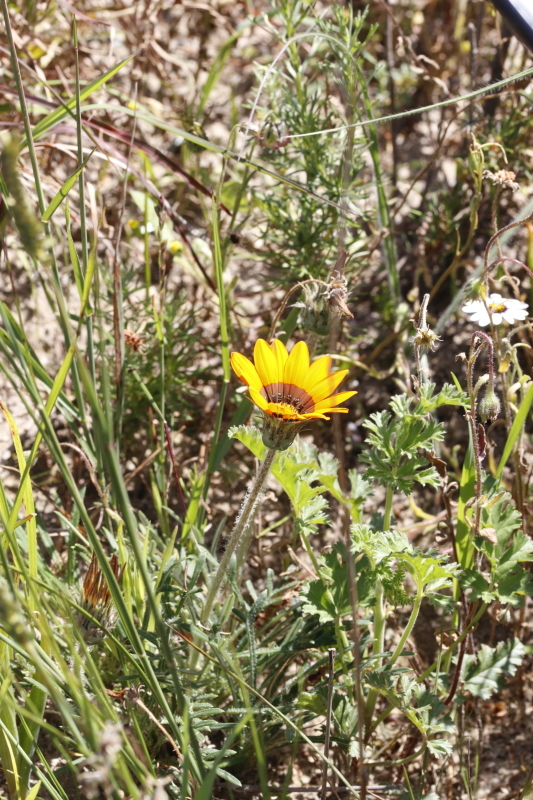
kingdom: Plantae
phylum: Tracheophyta
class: Magnoliopsida
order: Asterales
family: Asteraceae
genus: Gazania
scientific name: Gazania ciliaris
